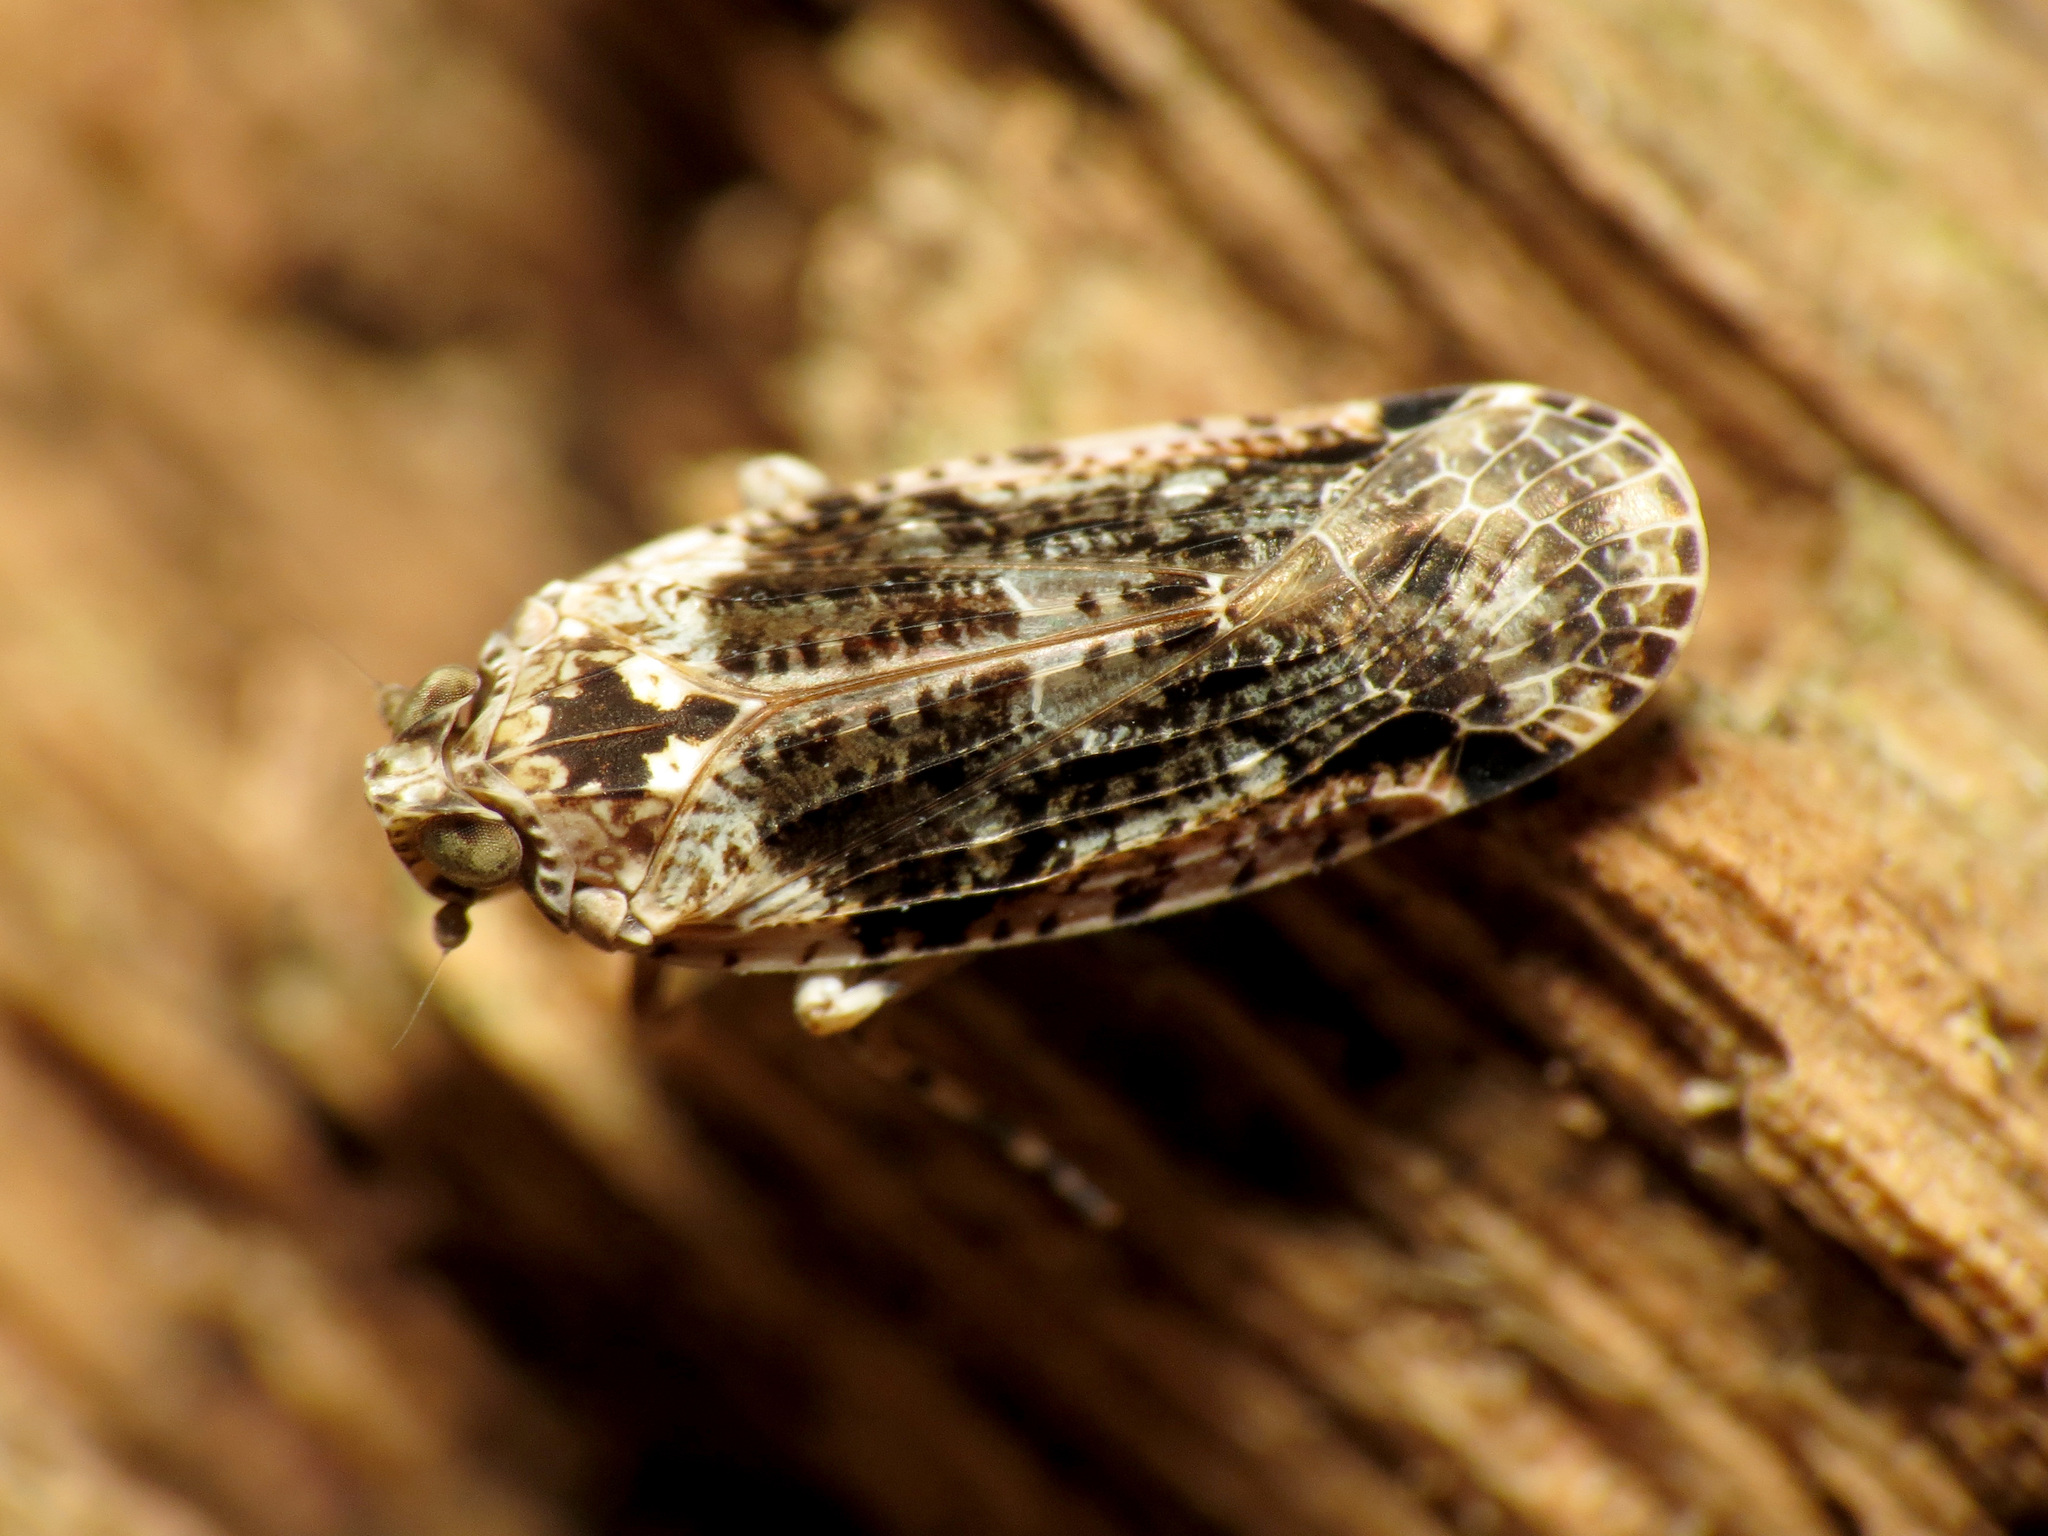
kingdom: Animalia
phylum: Arthropoda
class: Insecta
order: Hemiptera
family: Achilidae
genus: Catonia
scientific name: Catonia nava
